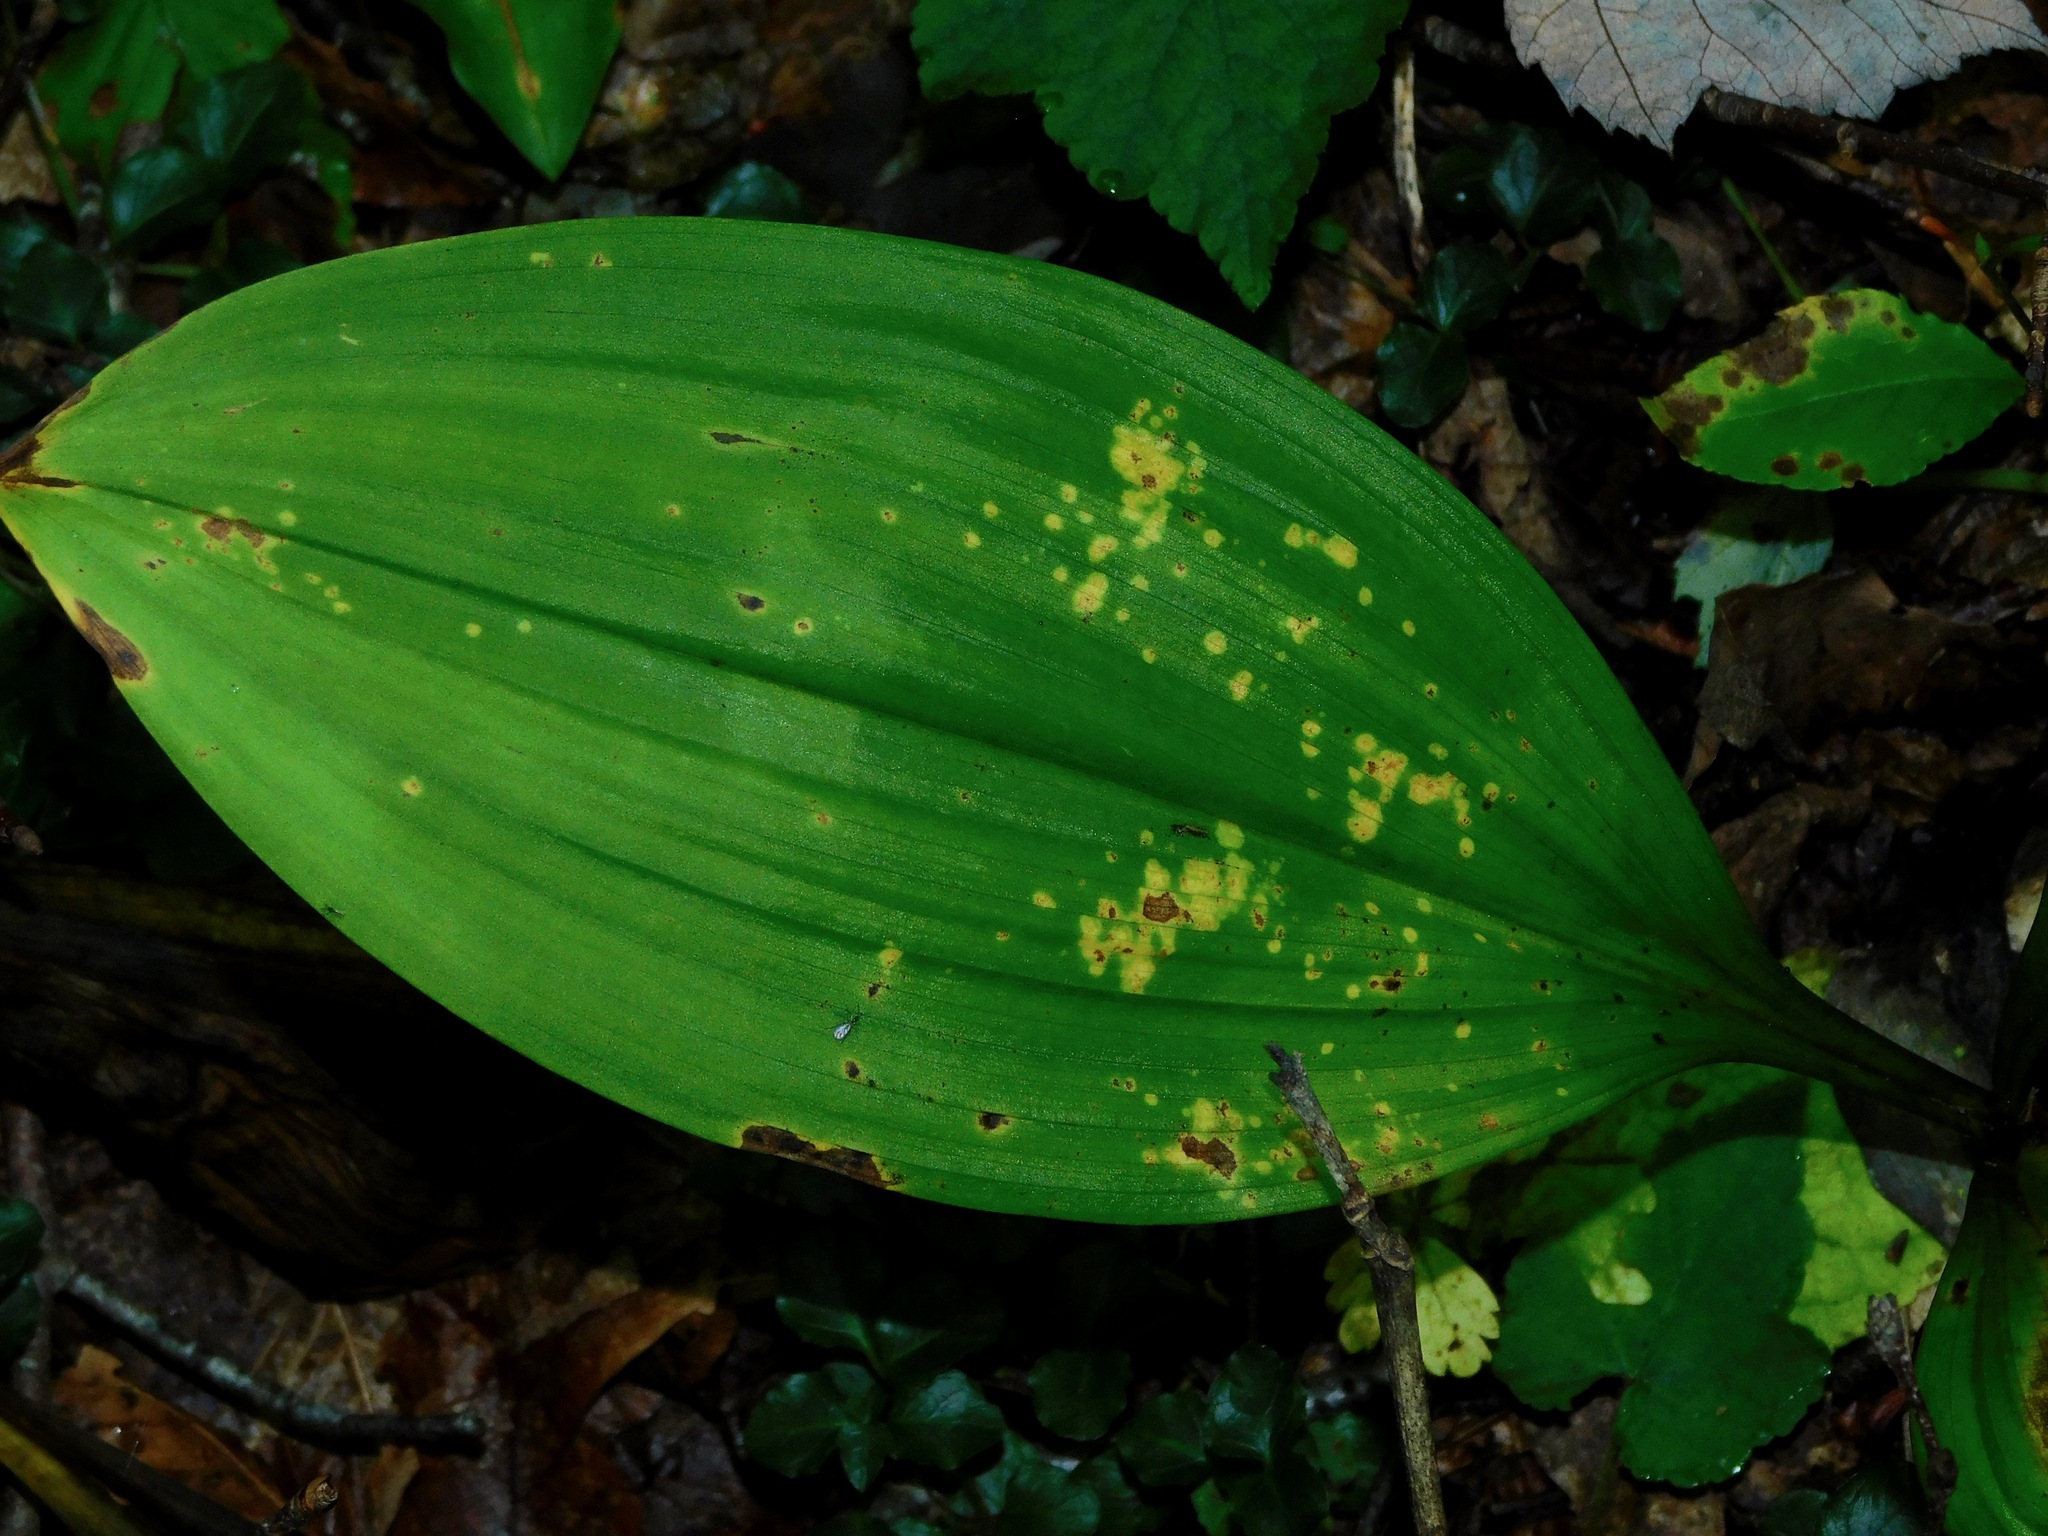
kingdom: Plantae
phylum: Tracheophyta
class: Liliopsida
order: Liliales
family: Melanthiaceae
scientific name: Melanthiaceae
